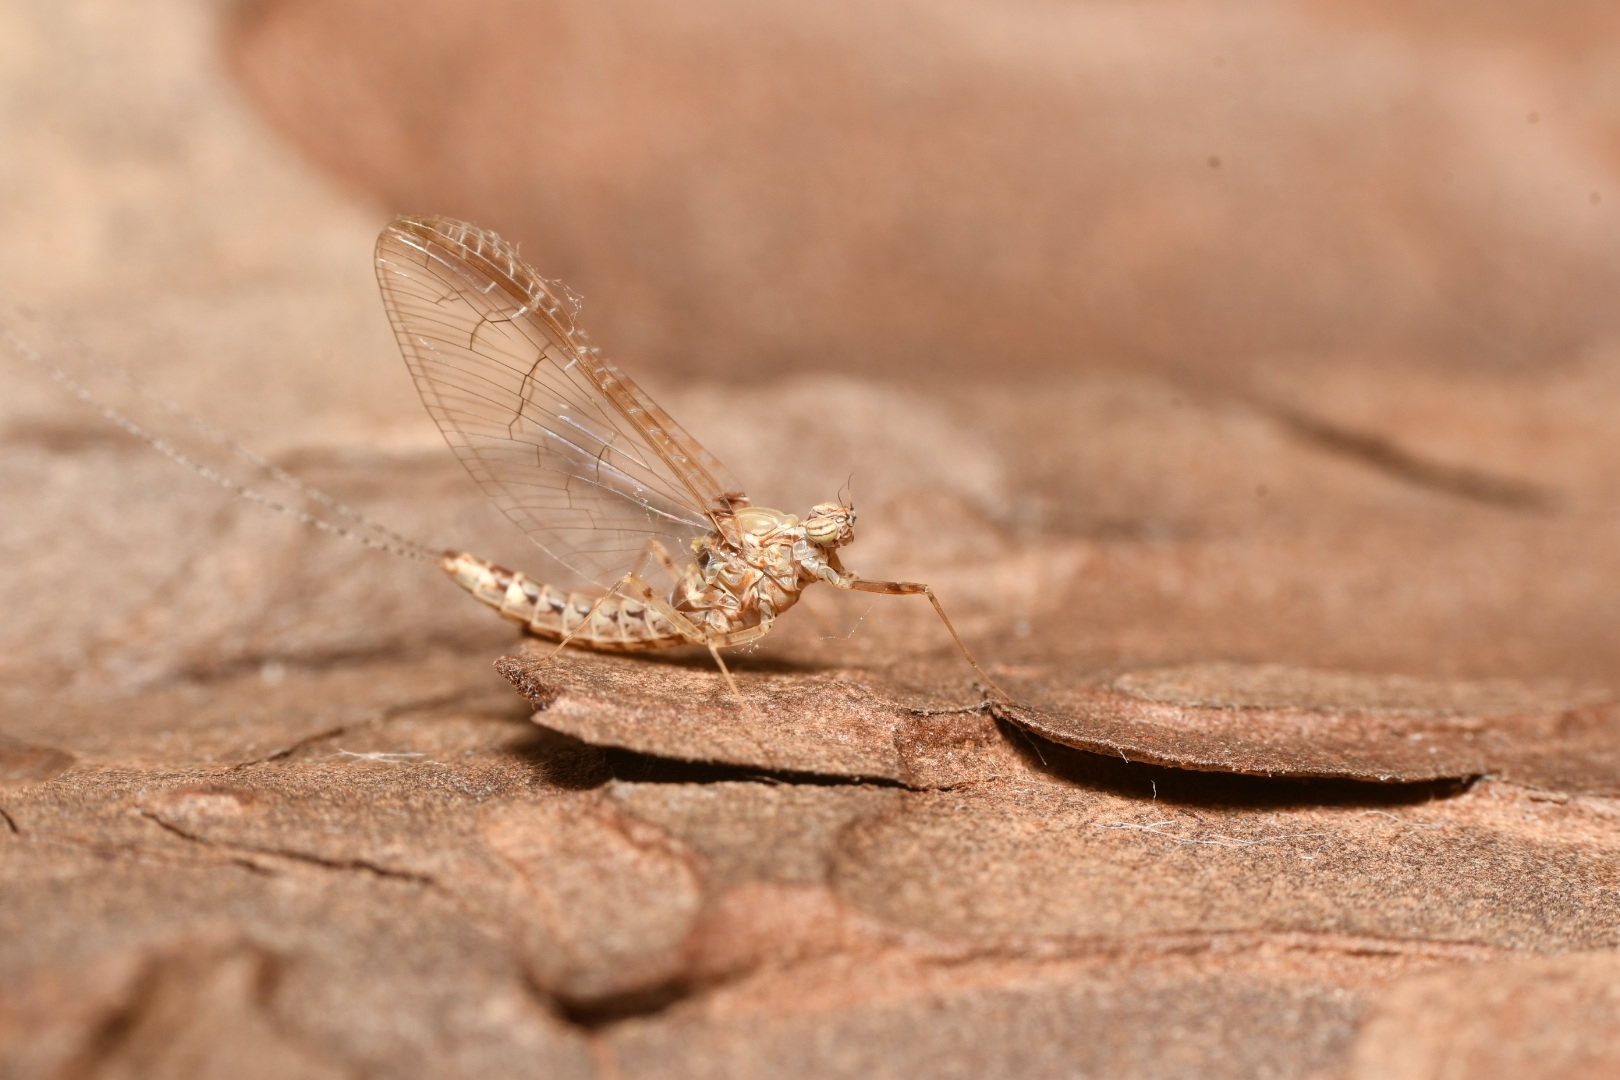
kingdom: Animalia
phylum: Arthropoda
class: Insecta
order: Ephemeroptera
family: Baetidae
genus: Cloeon
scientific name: Cloeon dipterum
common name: Pond olive
